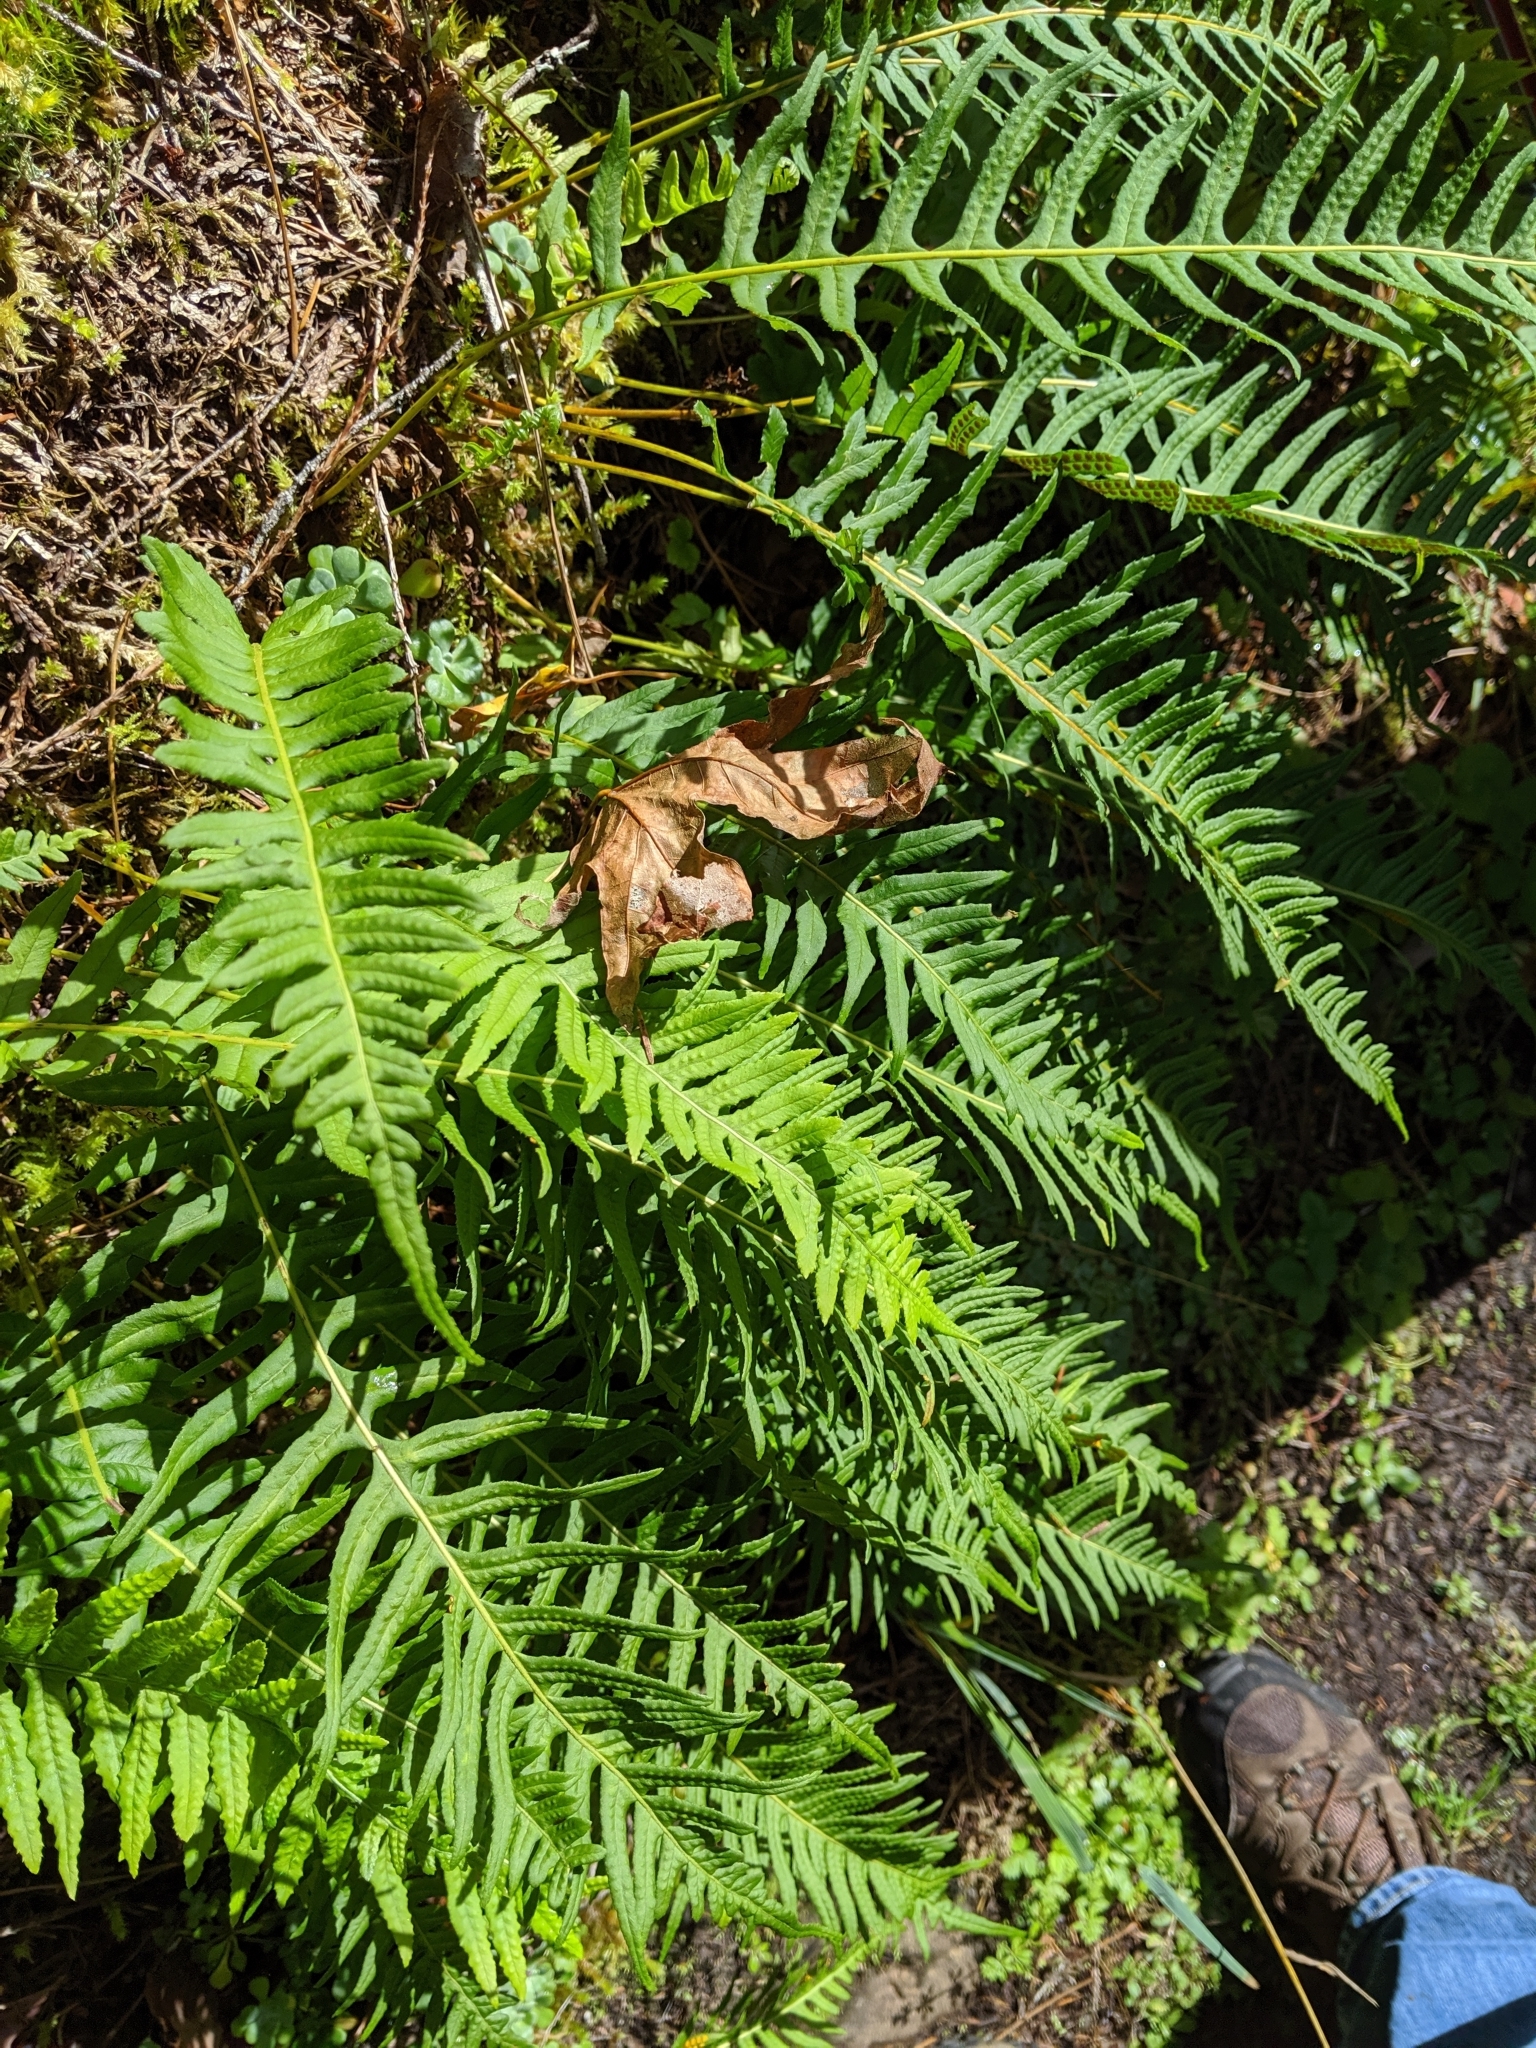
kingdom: Plantae
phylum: Tracheophyta
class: Polypodiopsida
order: Polypodiales
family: Polypodiaceae
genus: Polypodium
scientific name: Polypodium glycyrrhiza
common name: Licorice fern
